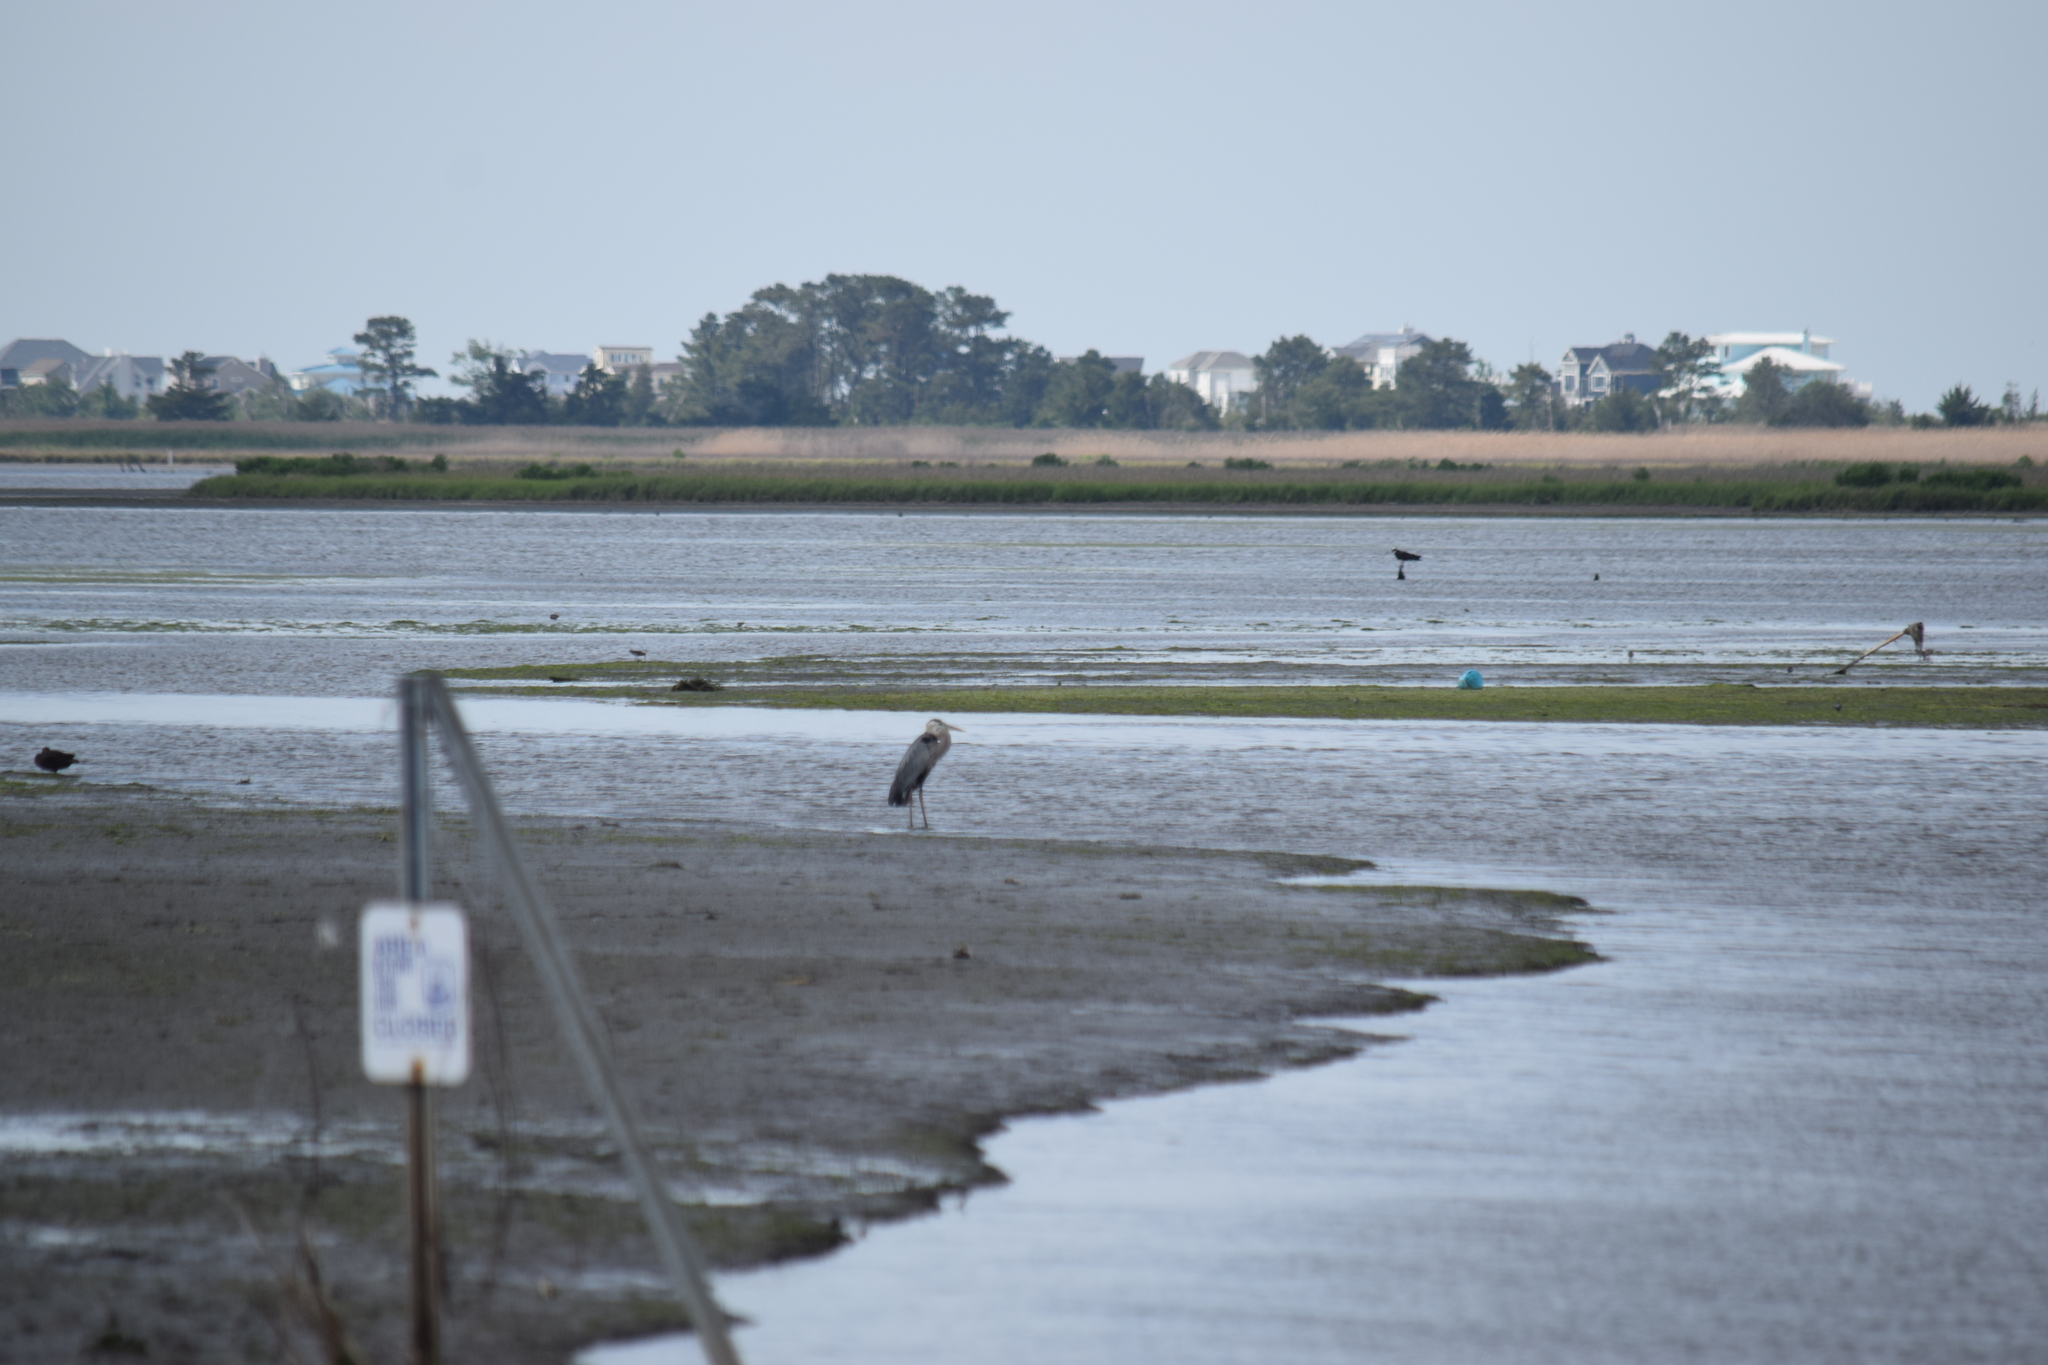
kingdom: Animalia
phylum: Chordata
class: Aves
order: Pelecaniformes
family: Ardeidae
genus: Ardea
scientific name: Ardea herodias
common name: Great blue heron
